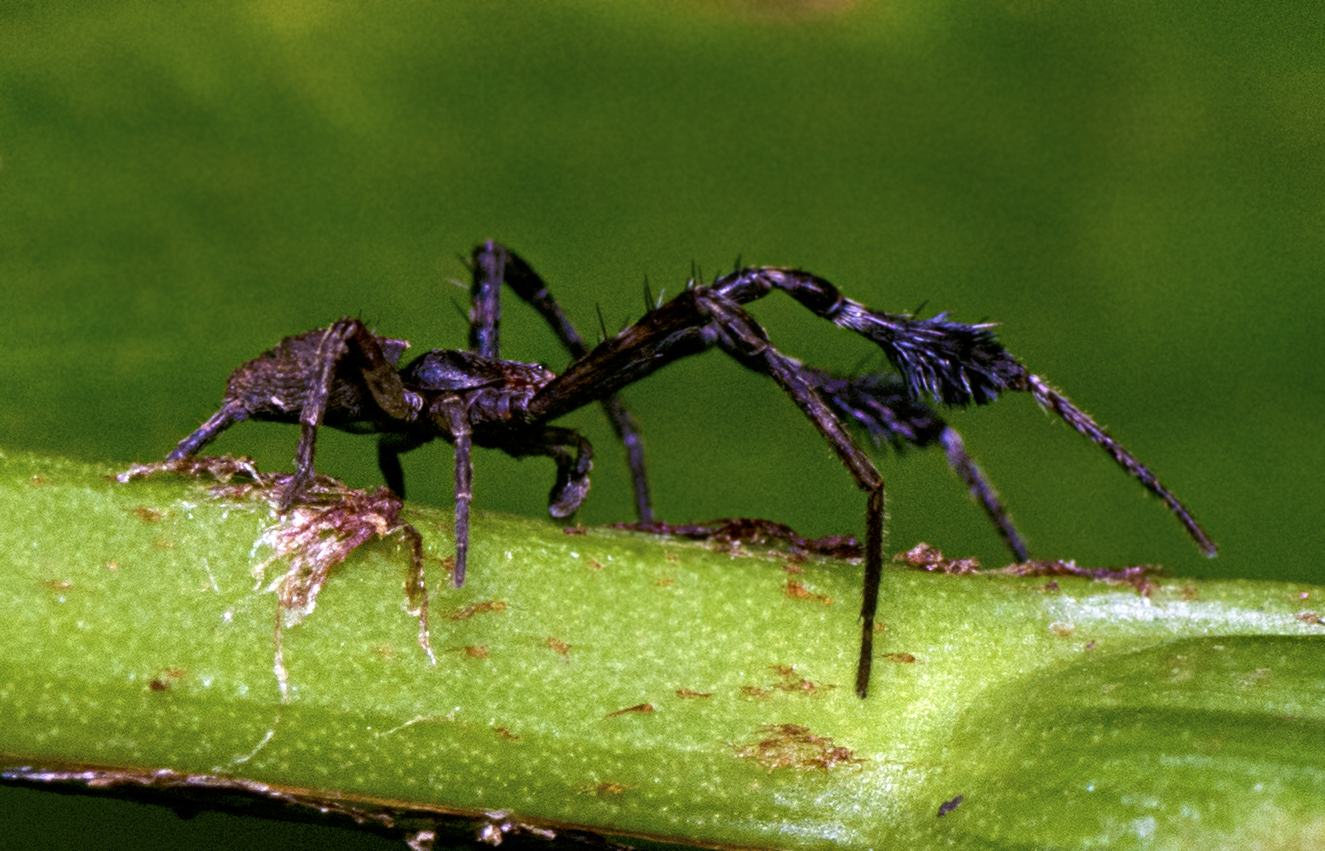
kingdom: Animalia
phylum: Arthropoda
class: Arachnida
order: Araneae
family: Thomisidae
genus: Stephanopis
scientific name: Stephanopis barbipes
